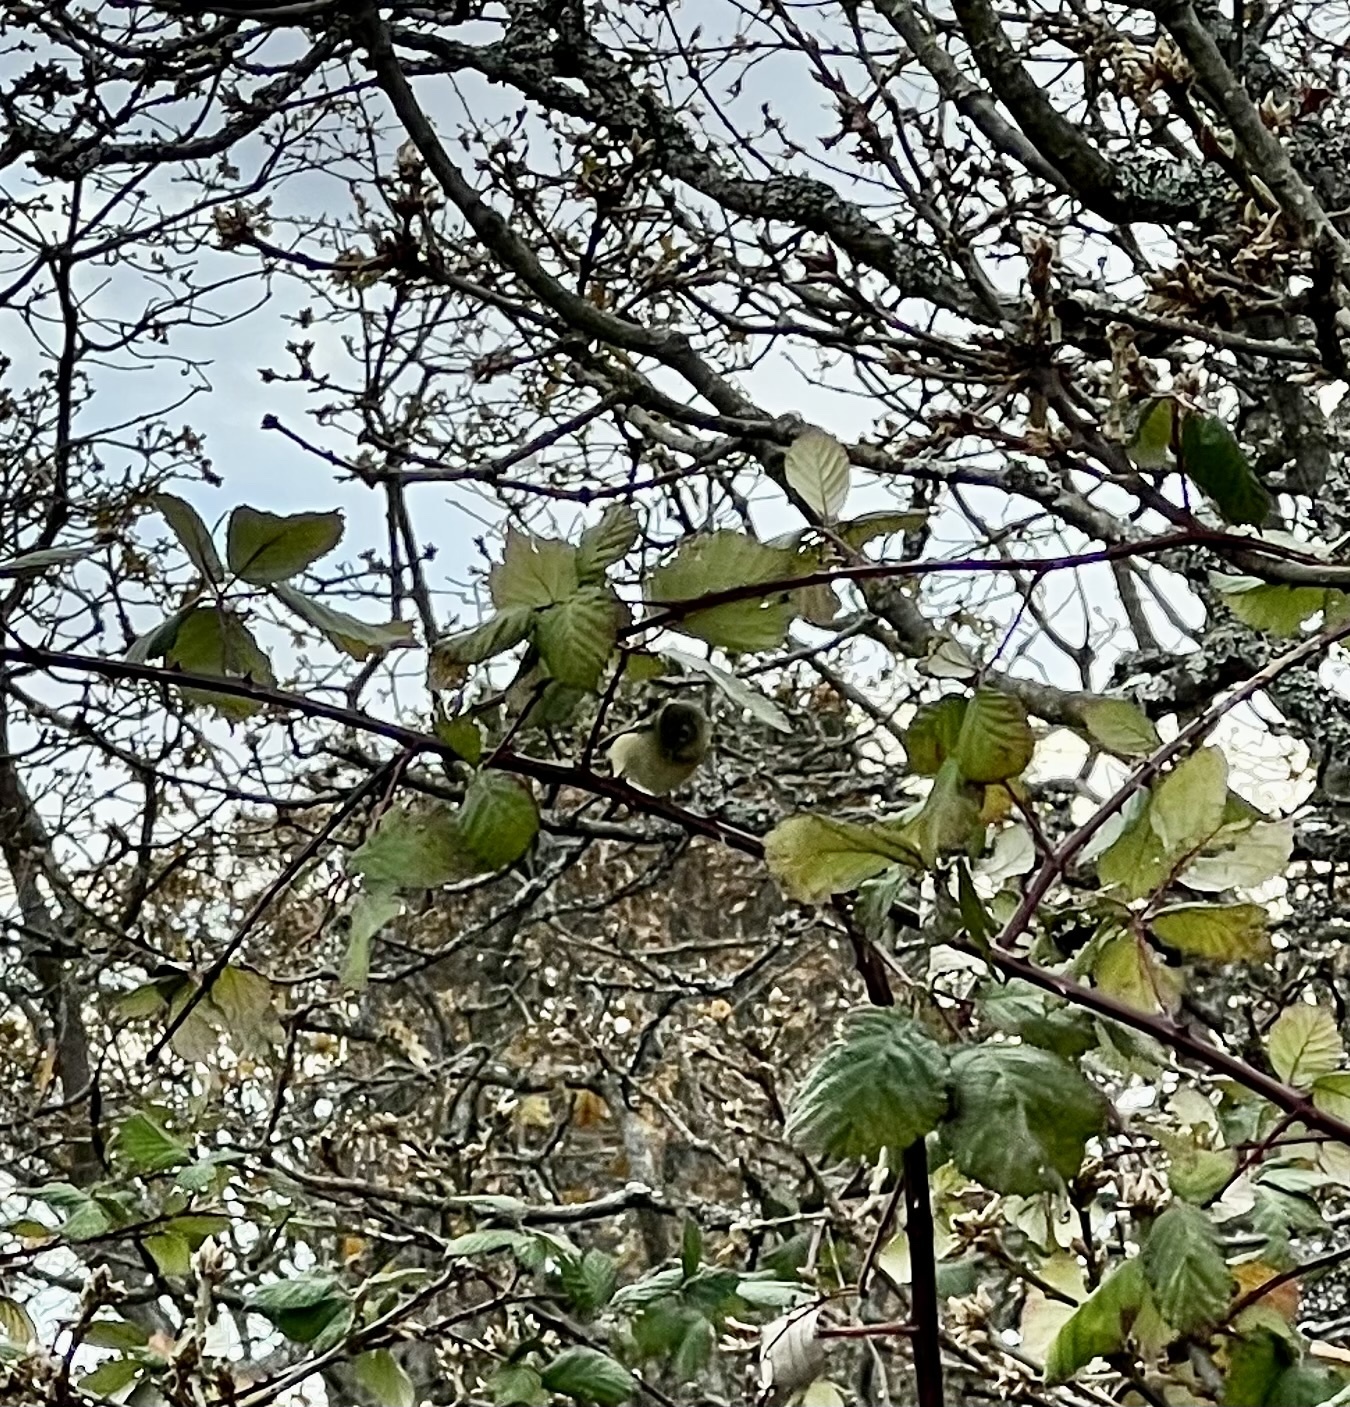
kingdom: Animalia
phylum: Chordata
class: Aves
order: Passeriformes
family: Regulidae
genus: Regulus
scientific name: Regulus calendula
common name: Ruby-crowned kinglet
